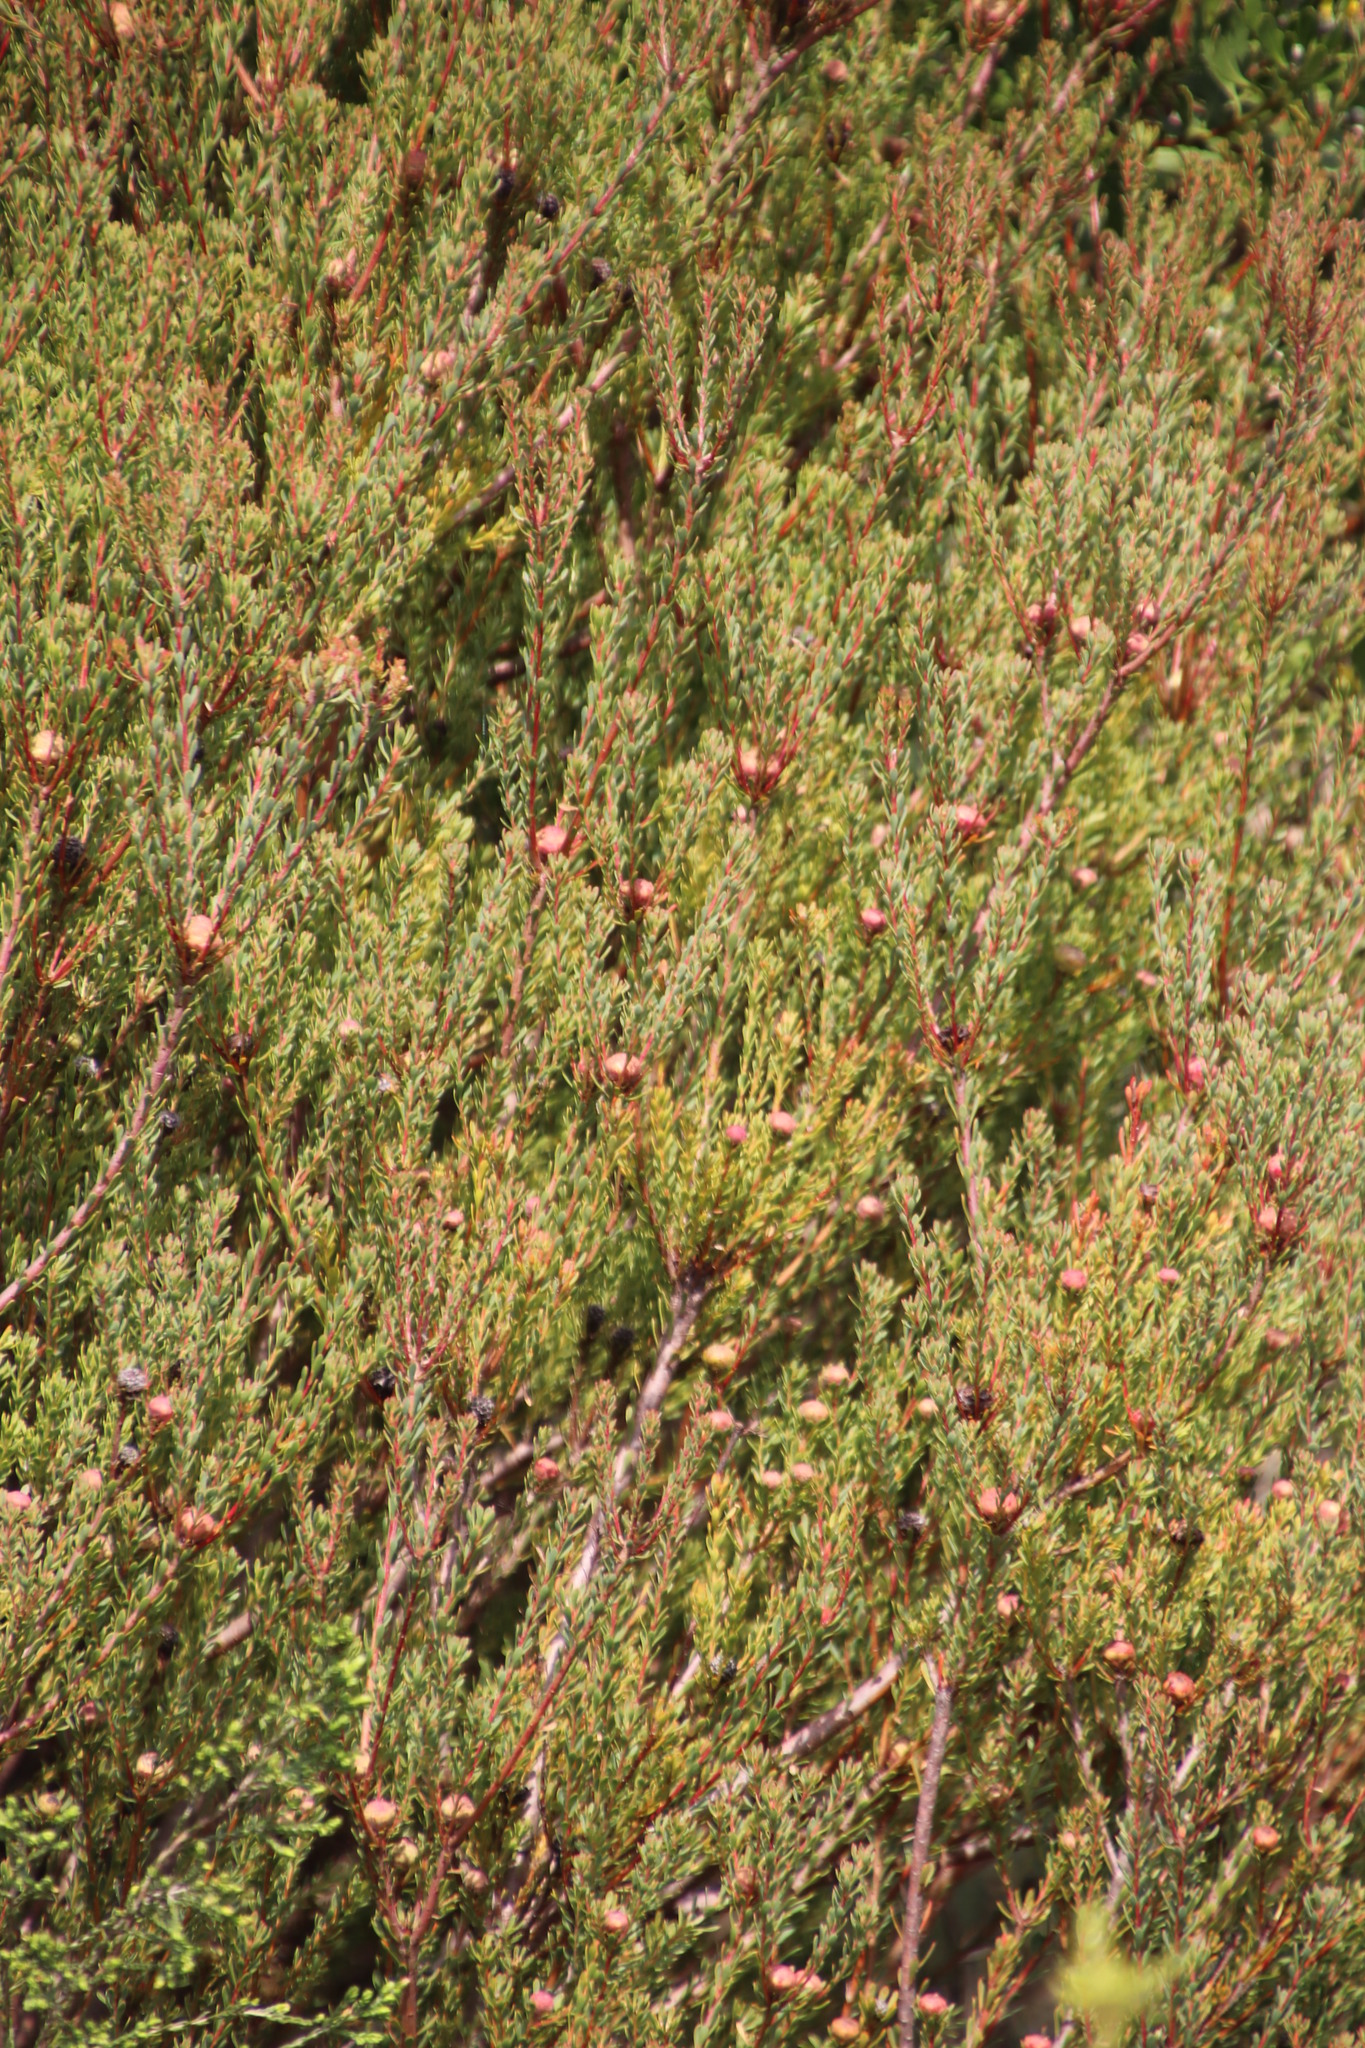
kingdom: Plantae
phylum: Tracheophyta
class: Magnoliopsida
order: Proteales
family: Proteaceae
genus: Leucadendron
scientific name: Leucadendron levisanus
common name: Cape flats conebush
